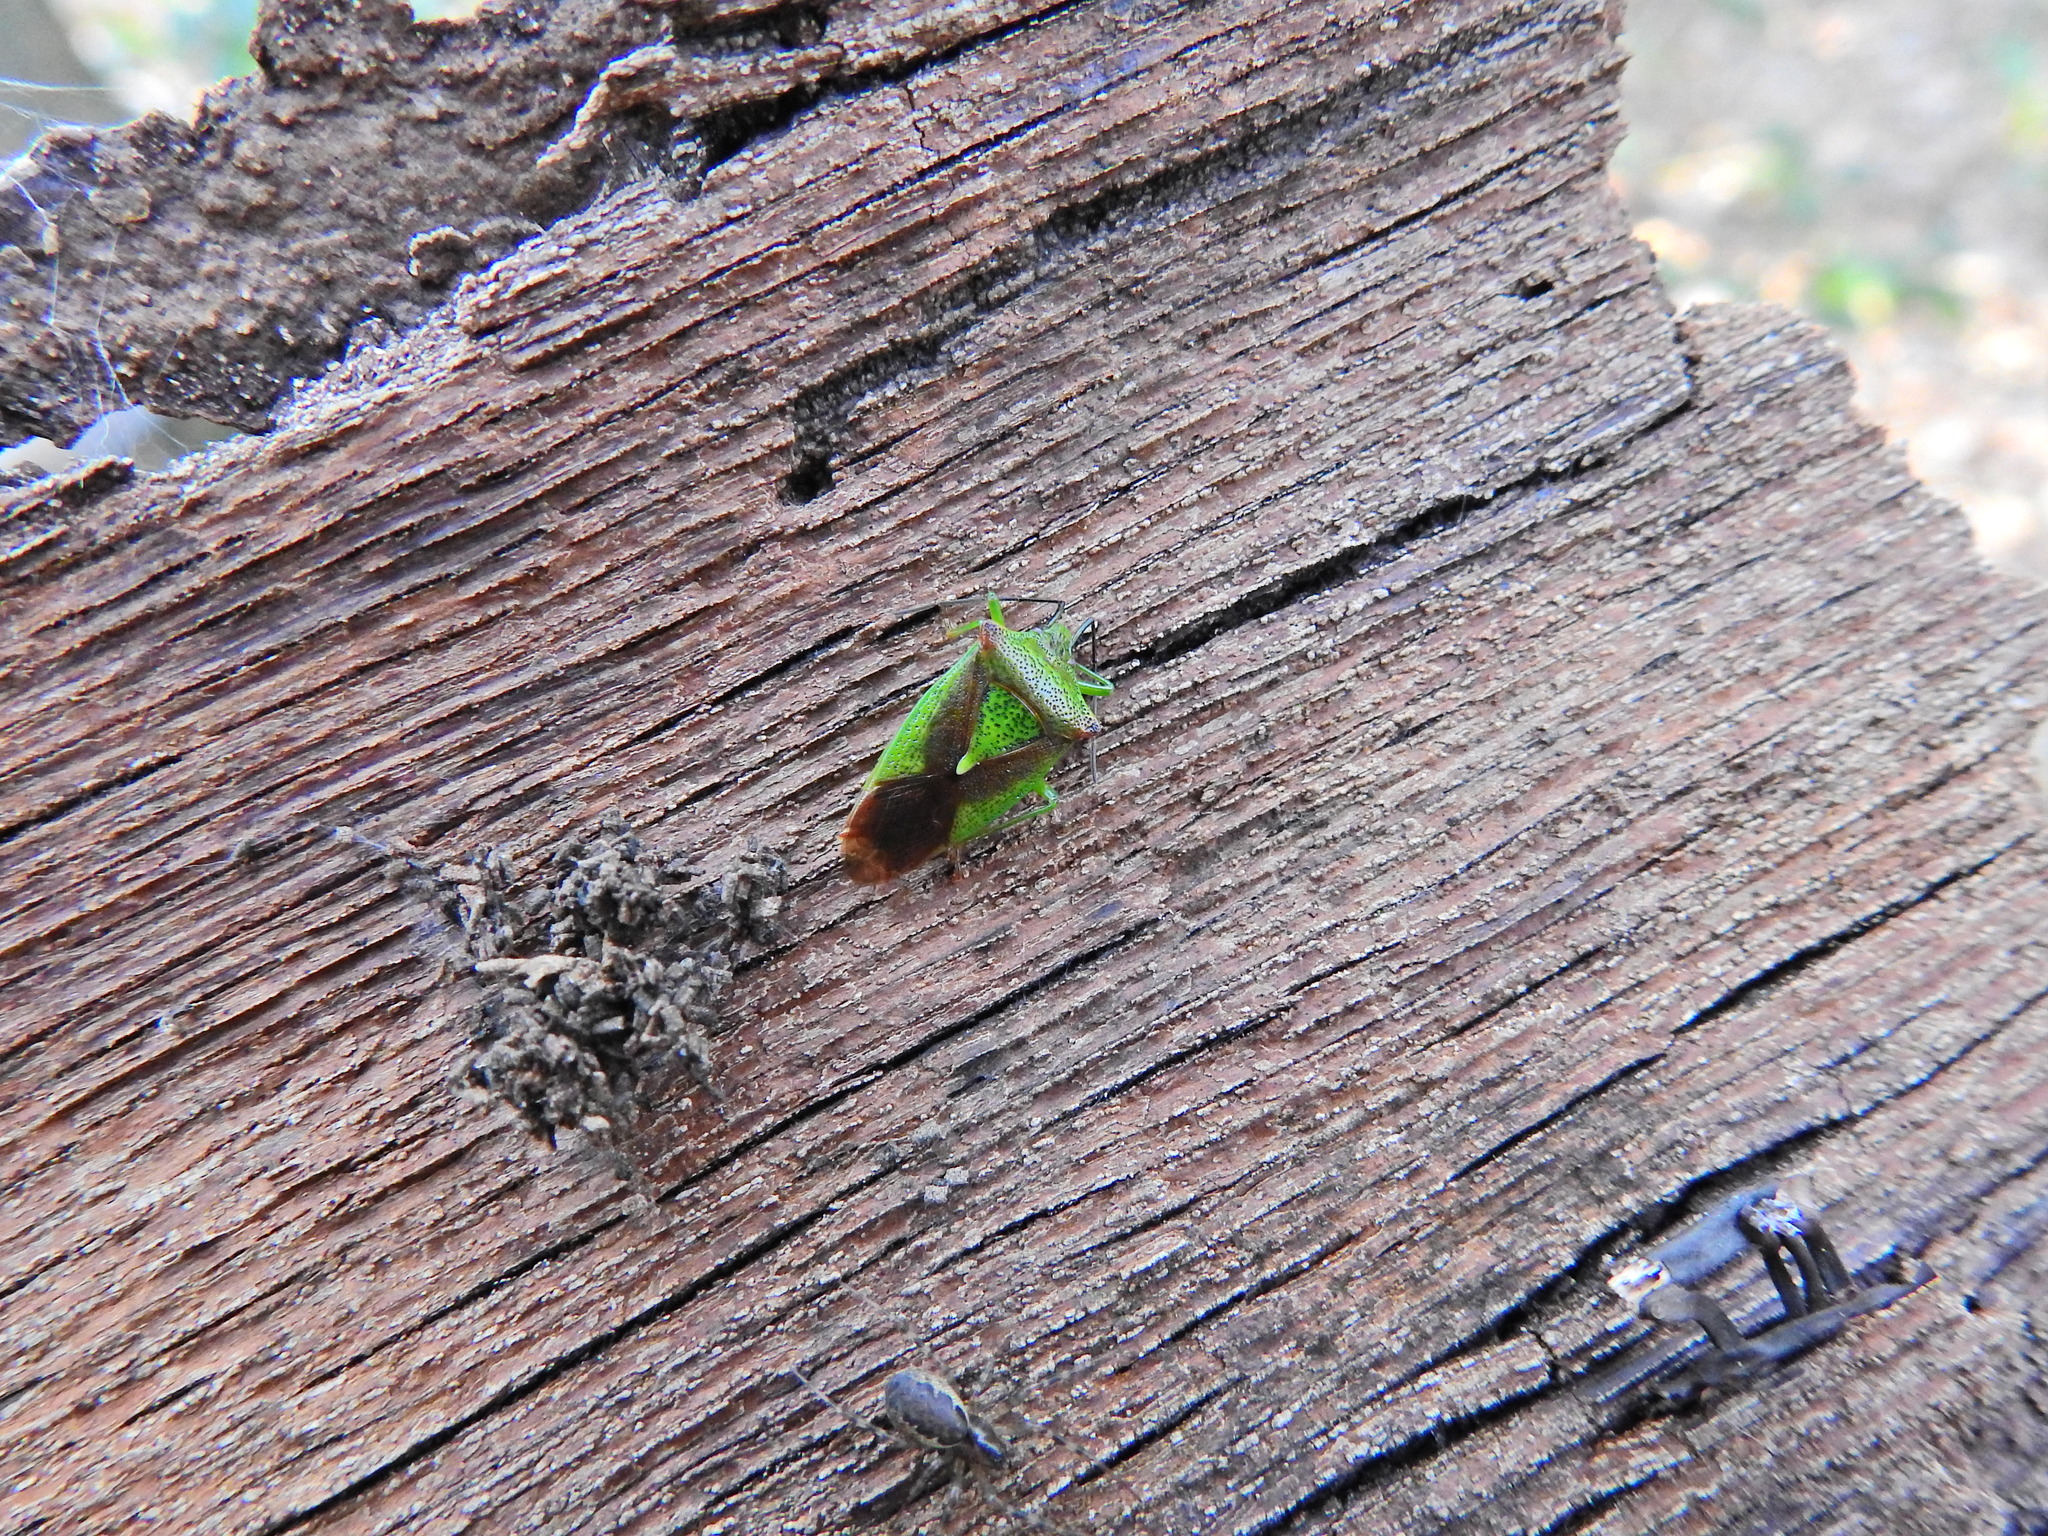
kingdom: Animalia
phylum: Arthropoda
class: Insecta
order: Hemiptera
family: Acanthosomatidae
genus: Acanthosoma
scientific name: Acanthosoma haemorrhoidale
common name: Hawthorn shieldbug
